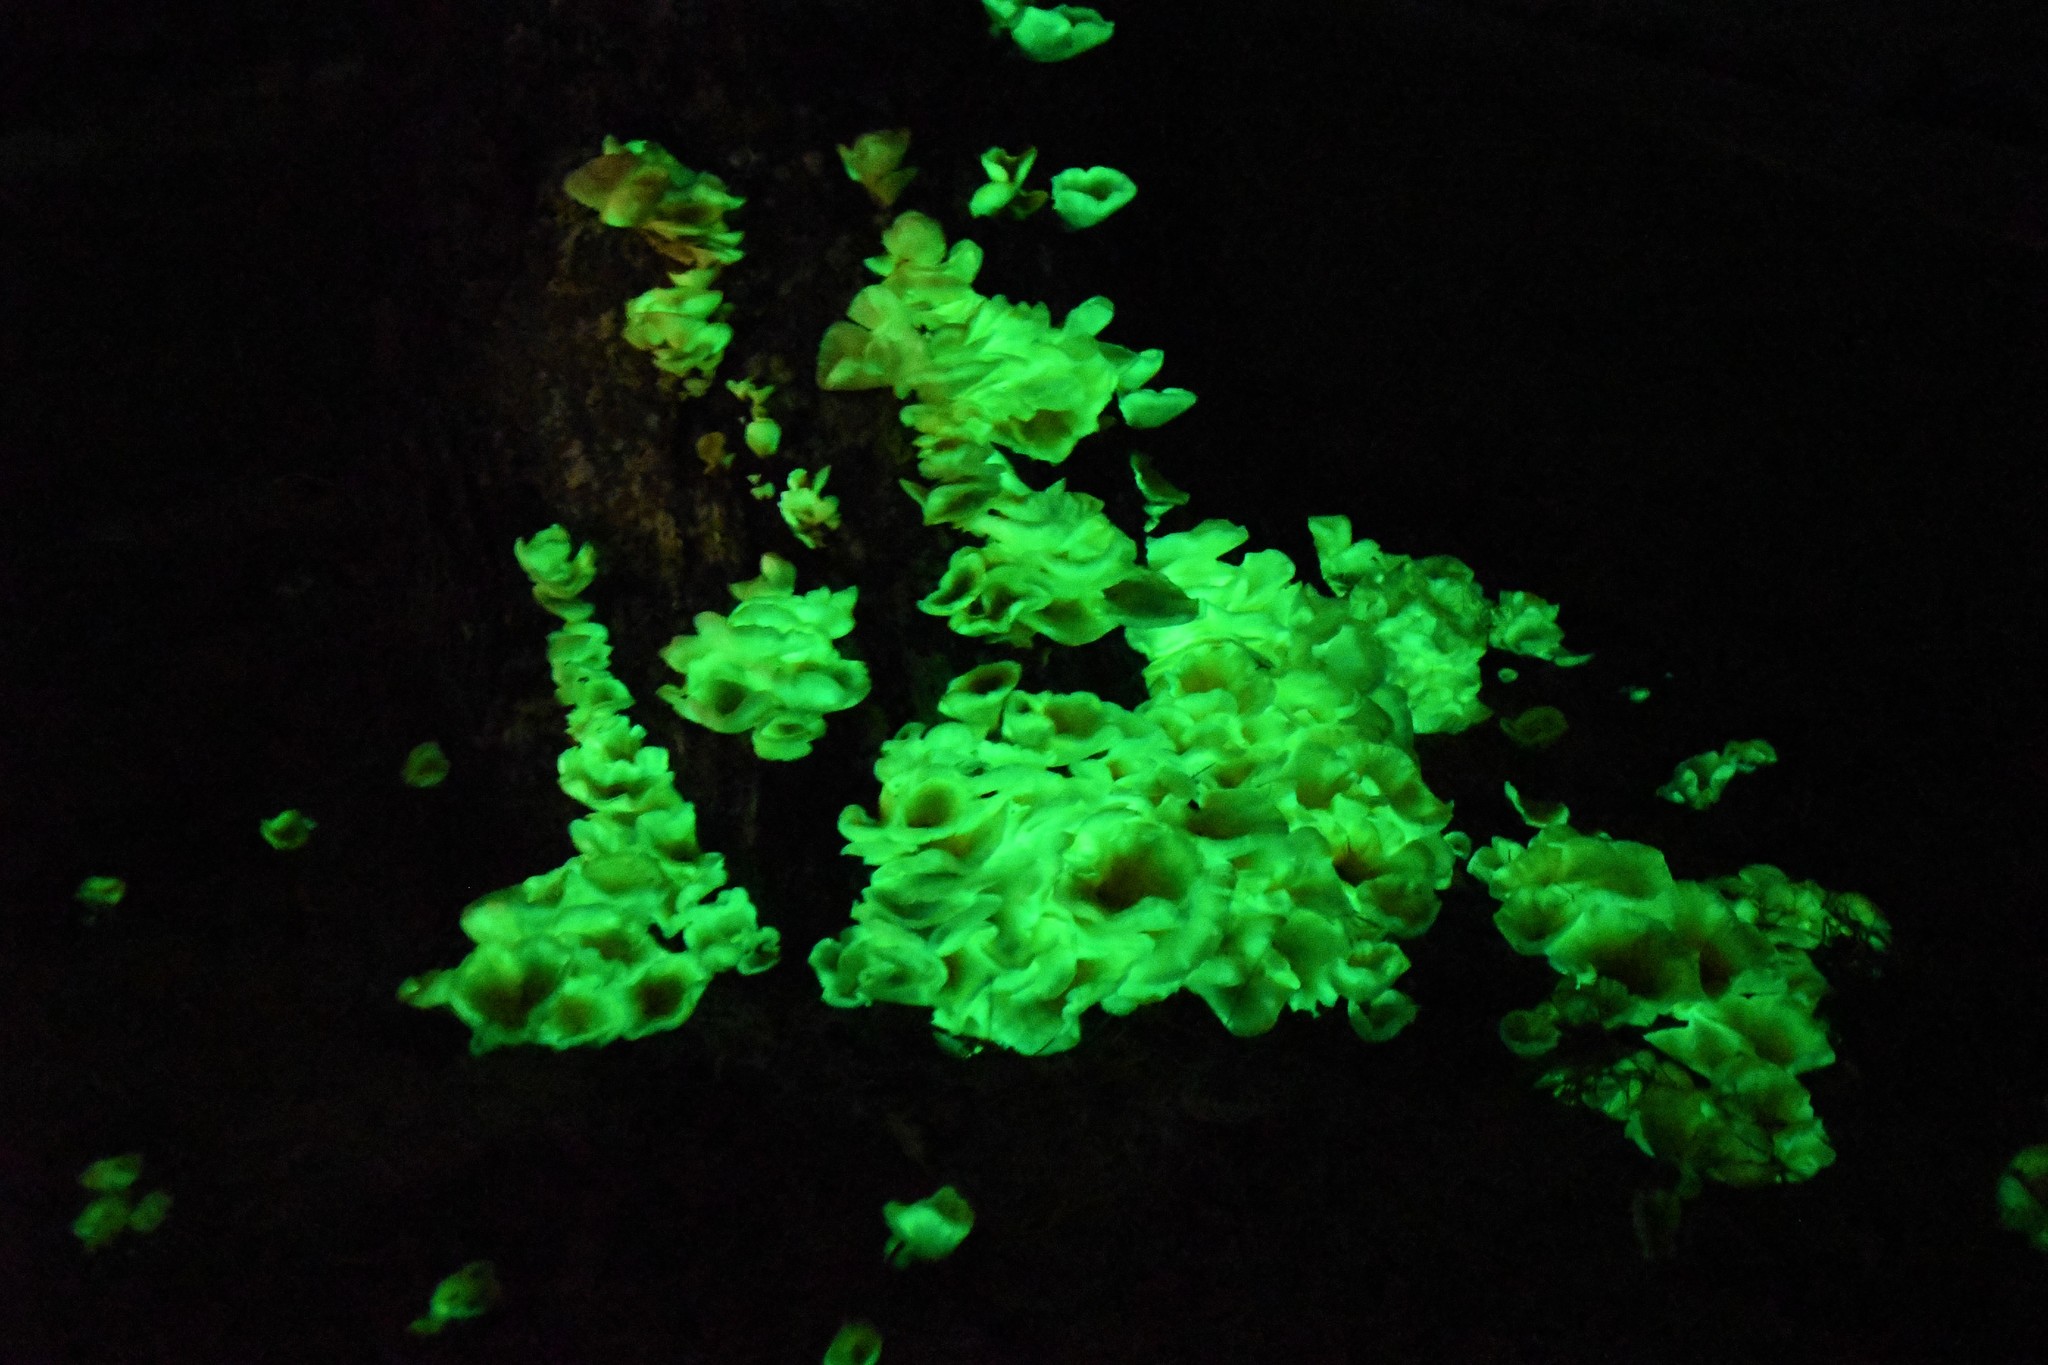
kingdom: Fungi
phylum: Basidiomycota
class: Agaricomycetes
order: Agaricales
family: Omphalotaceae
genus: Omphalotus
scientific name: Omphalotus nidiformis
